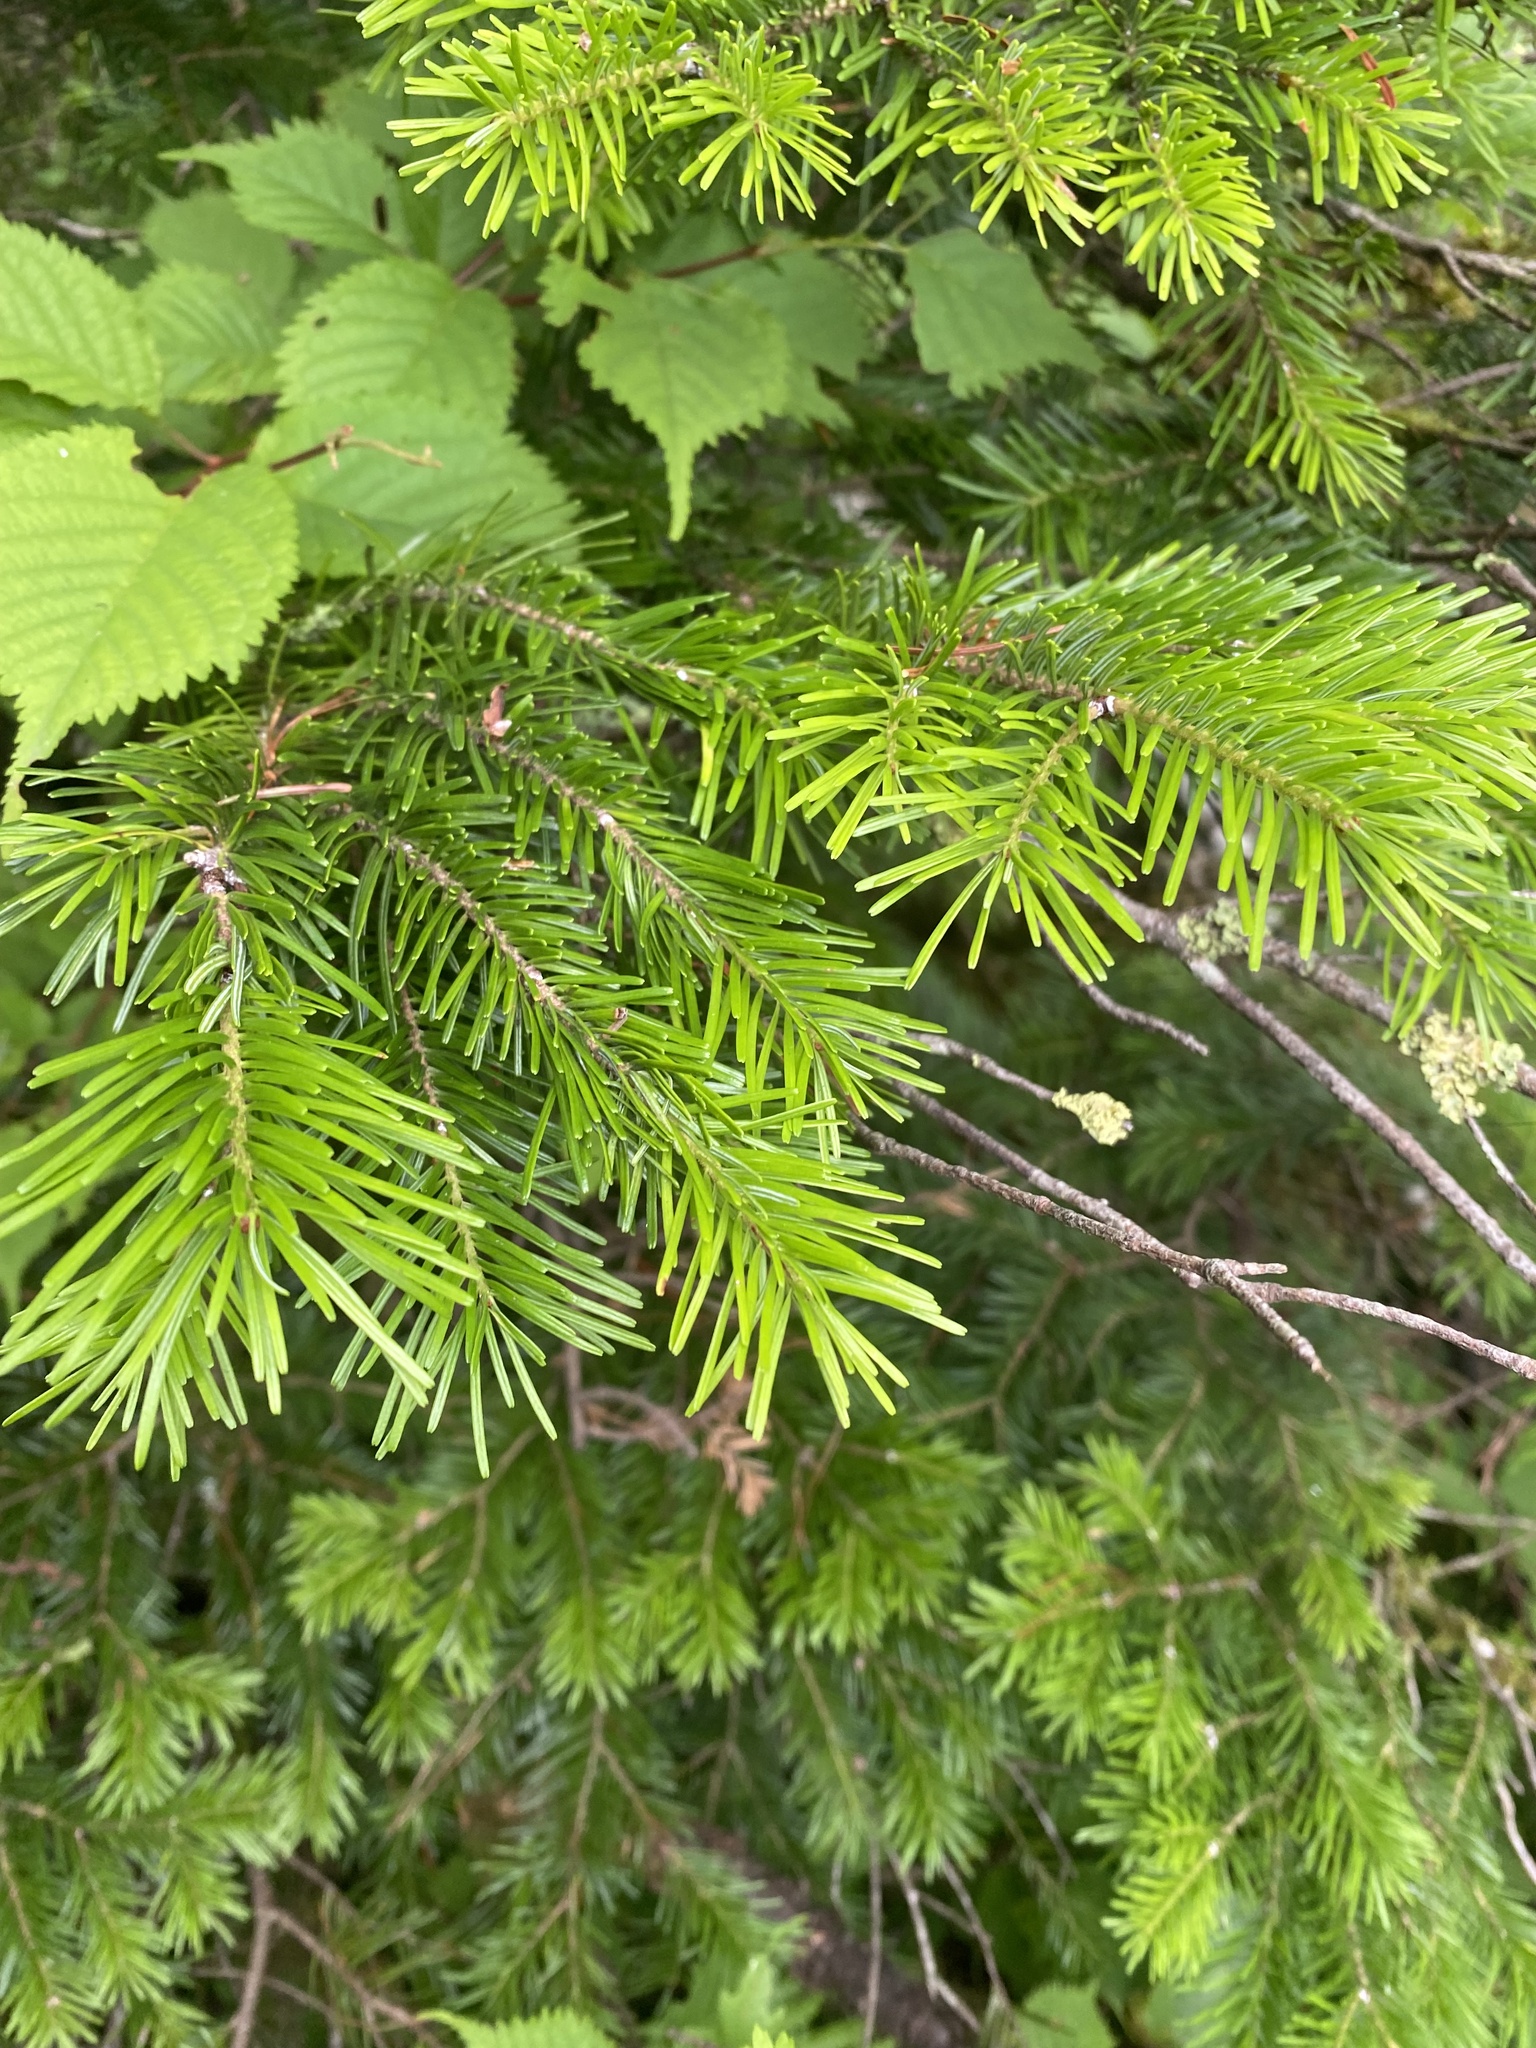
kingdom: Plantae
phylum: Tracheophyta
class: Pinopsida
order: Pinales
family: Pinaceae
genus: Abies
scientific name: Abies sachalinensis
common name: Sakhalin fir
